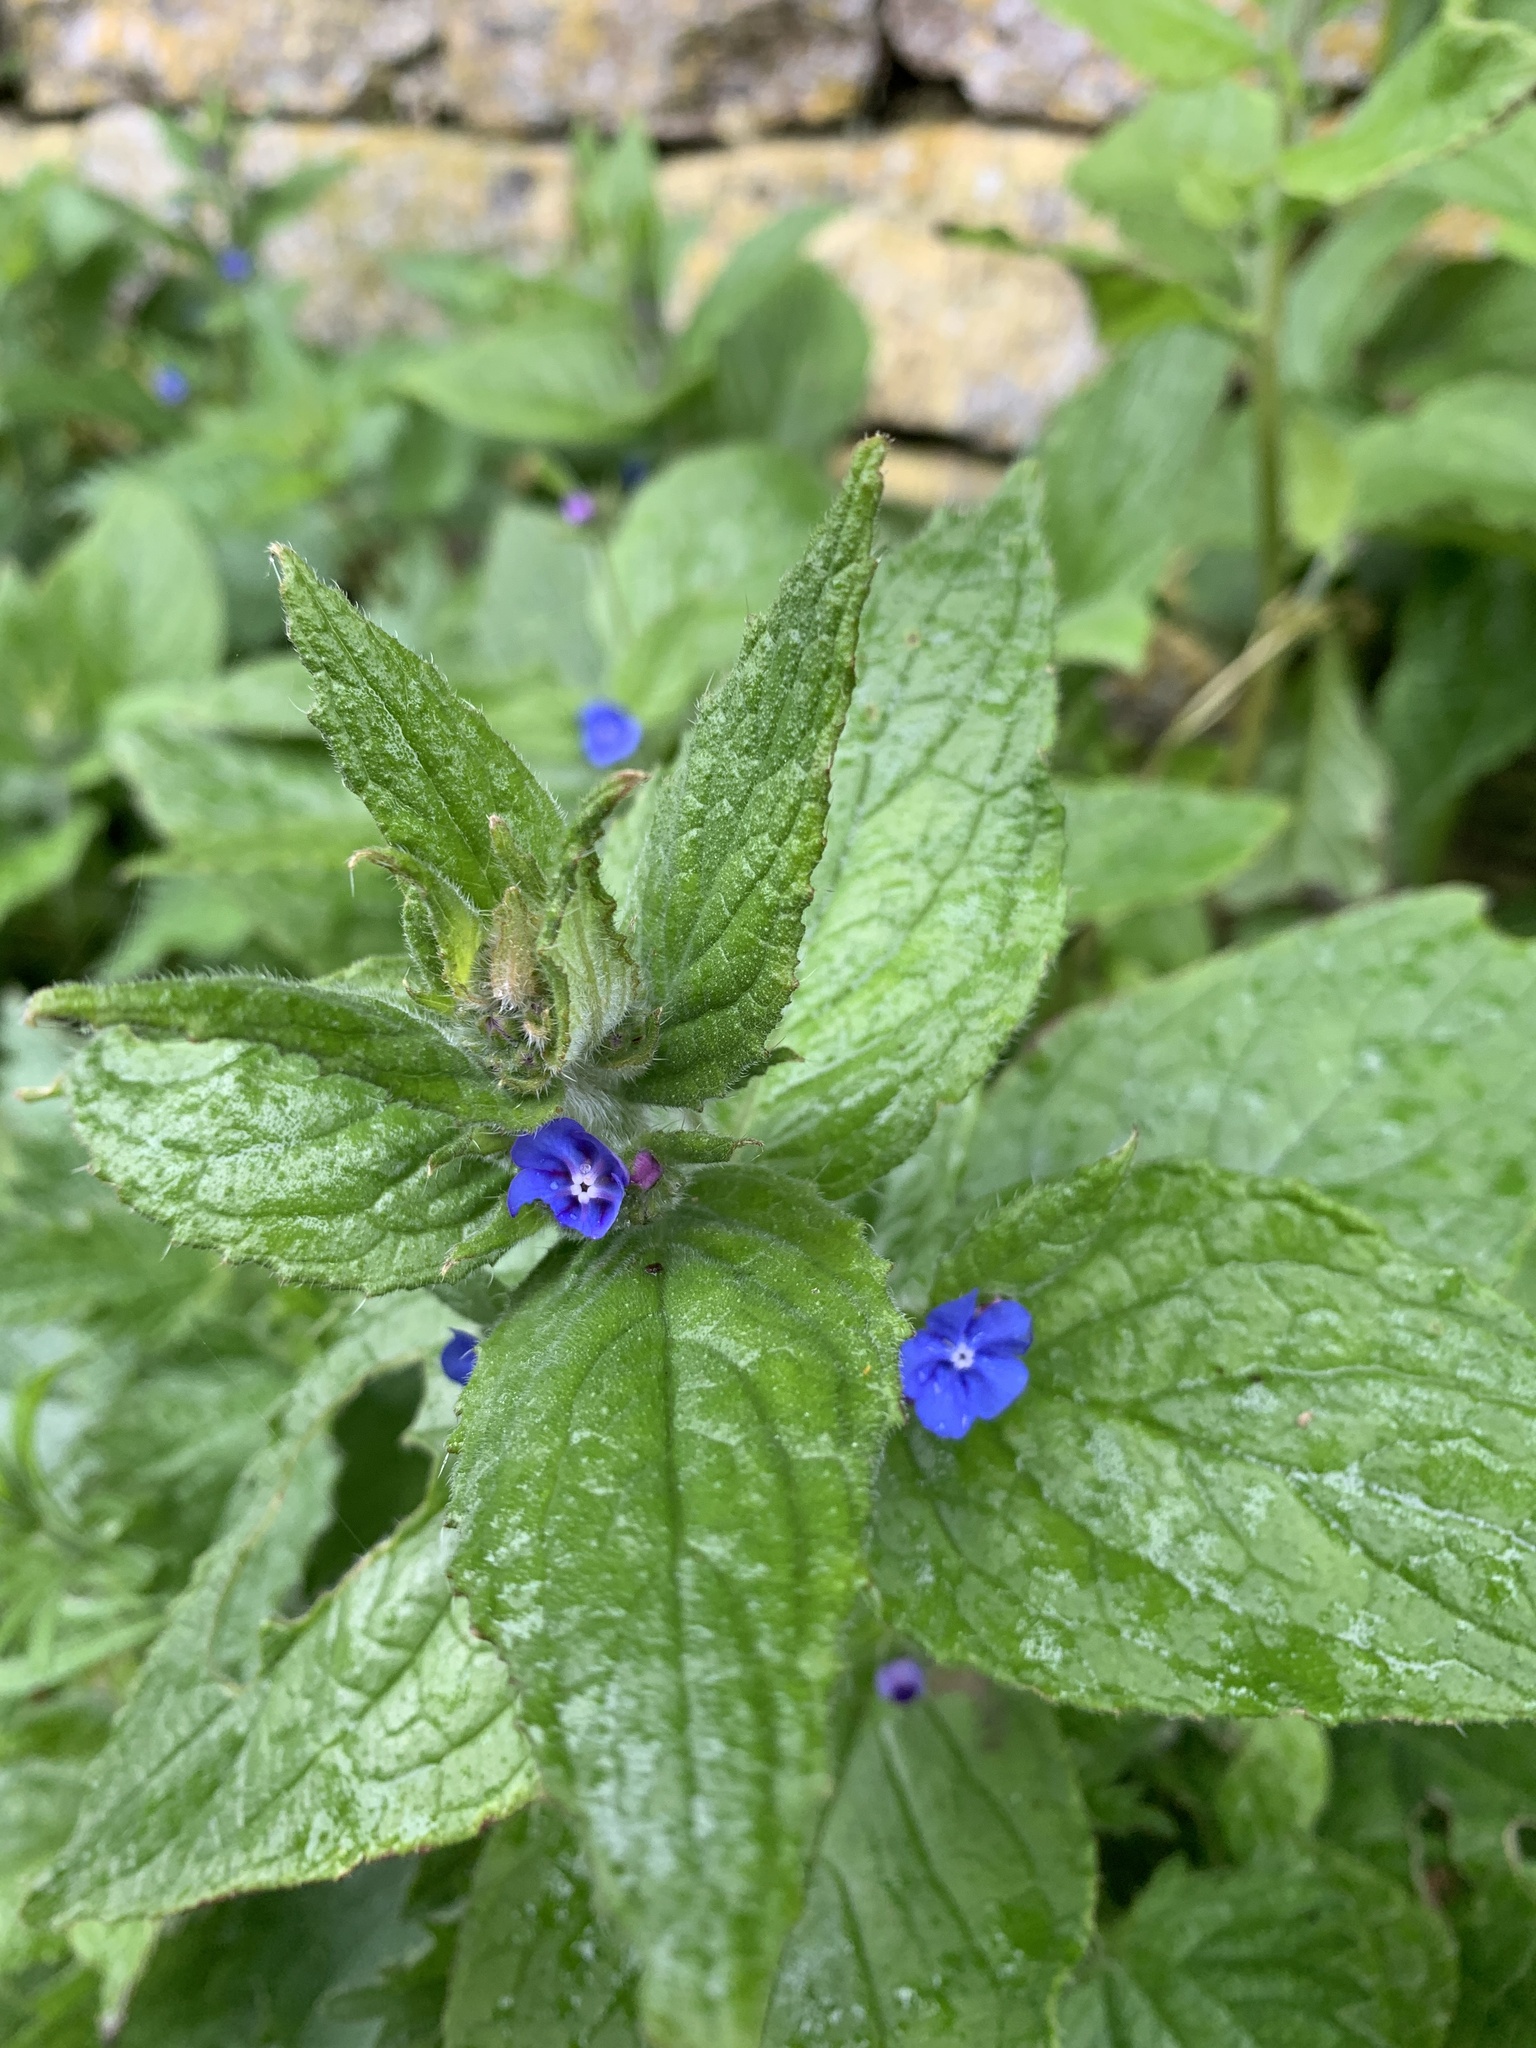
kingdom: Plantae
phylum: Tracheophyta
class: Magnoliopsida
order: Boraginales
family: Boraginaceae
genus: Pentaglottis
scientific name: Pentaglottis sempervirens
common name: Green alkanet
